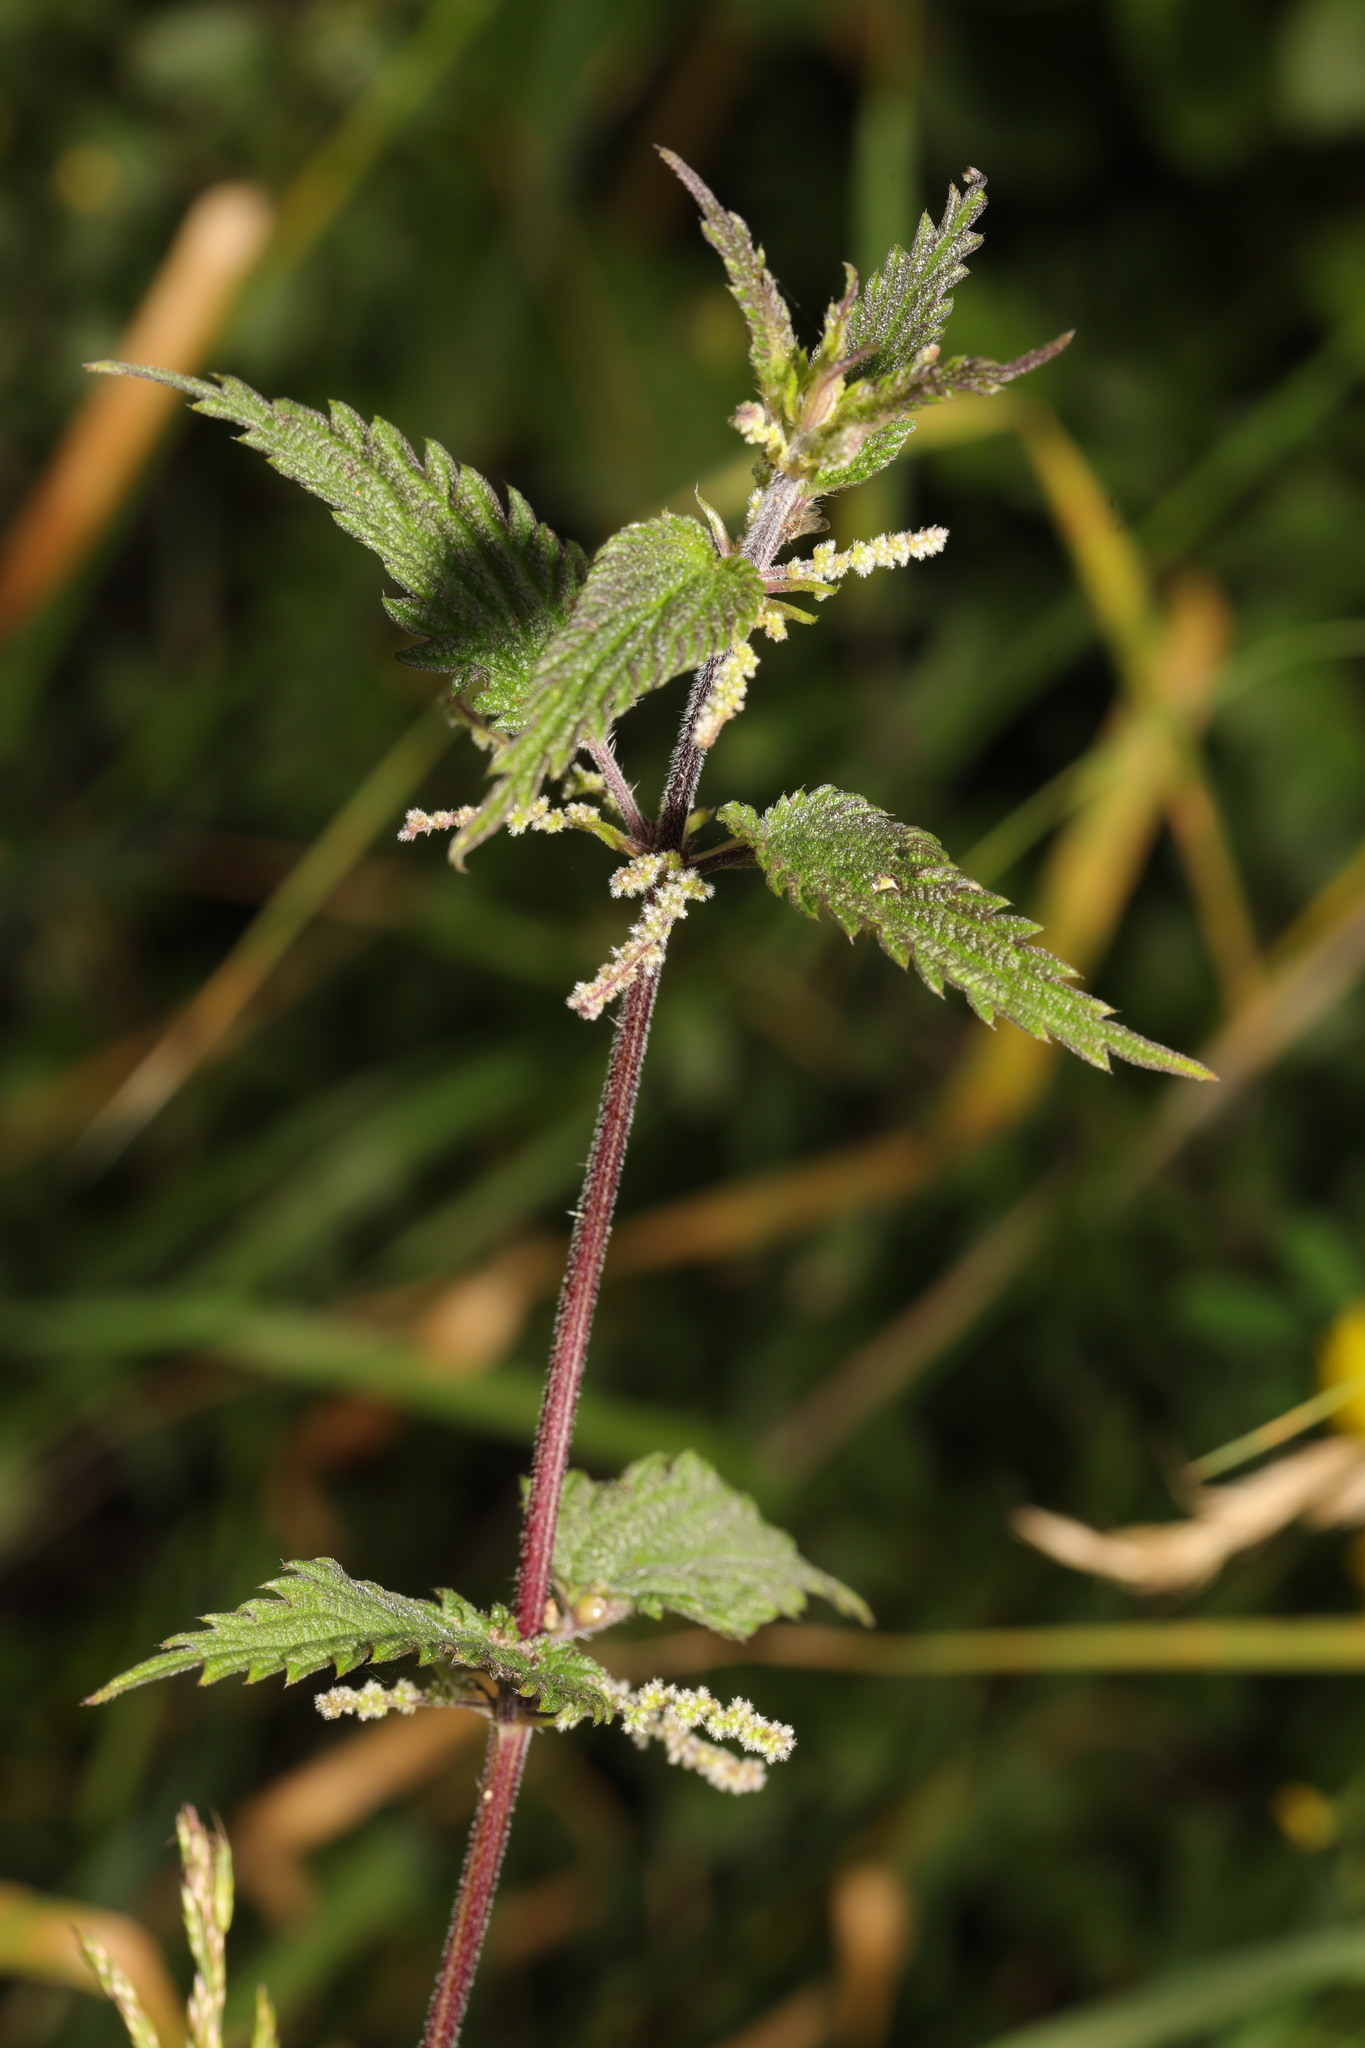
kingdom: Plantae
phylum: Tracheophyta
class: Magnoliopsida
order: Rosales
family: Urticaceae
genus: Urtica
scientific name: Urtica dioica
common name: Common nettle
